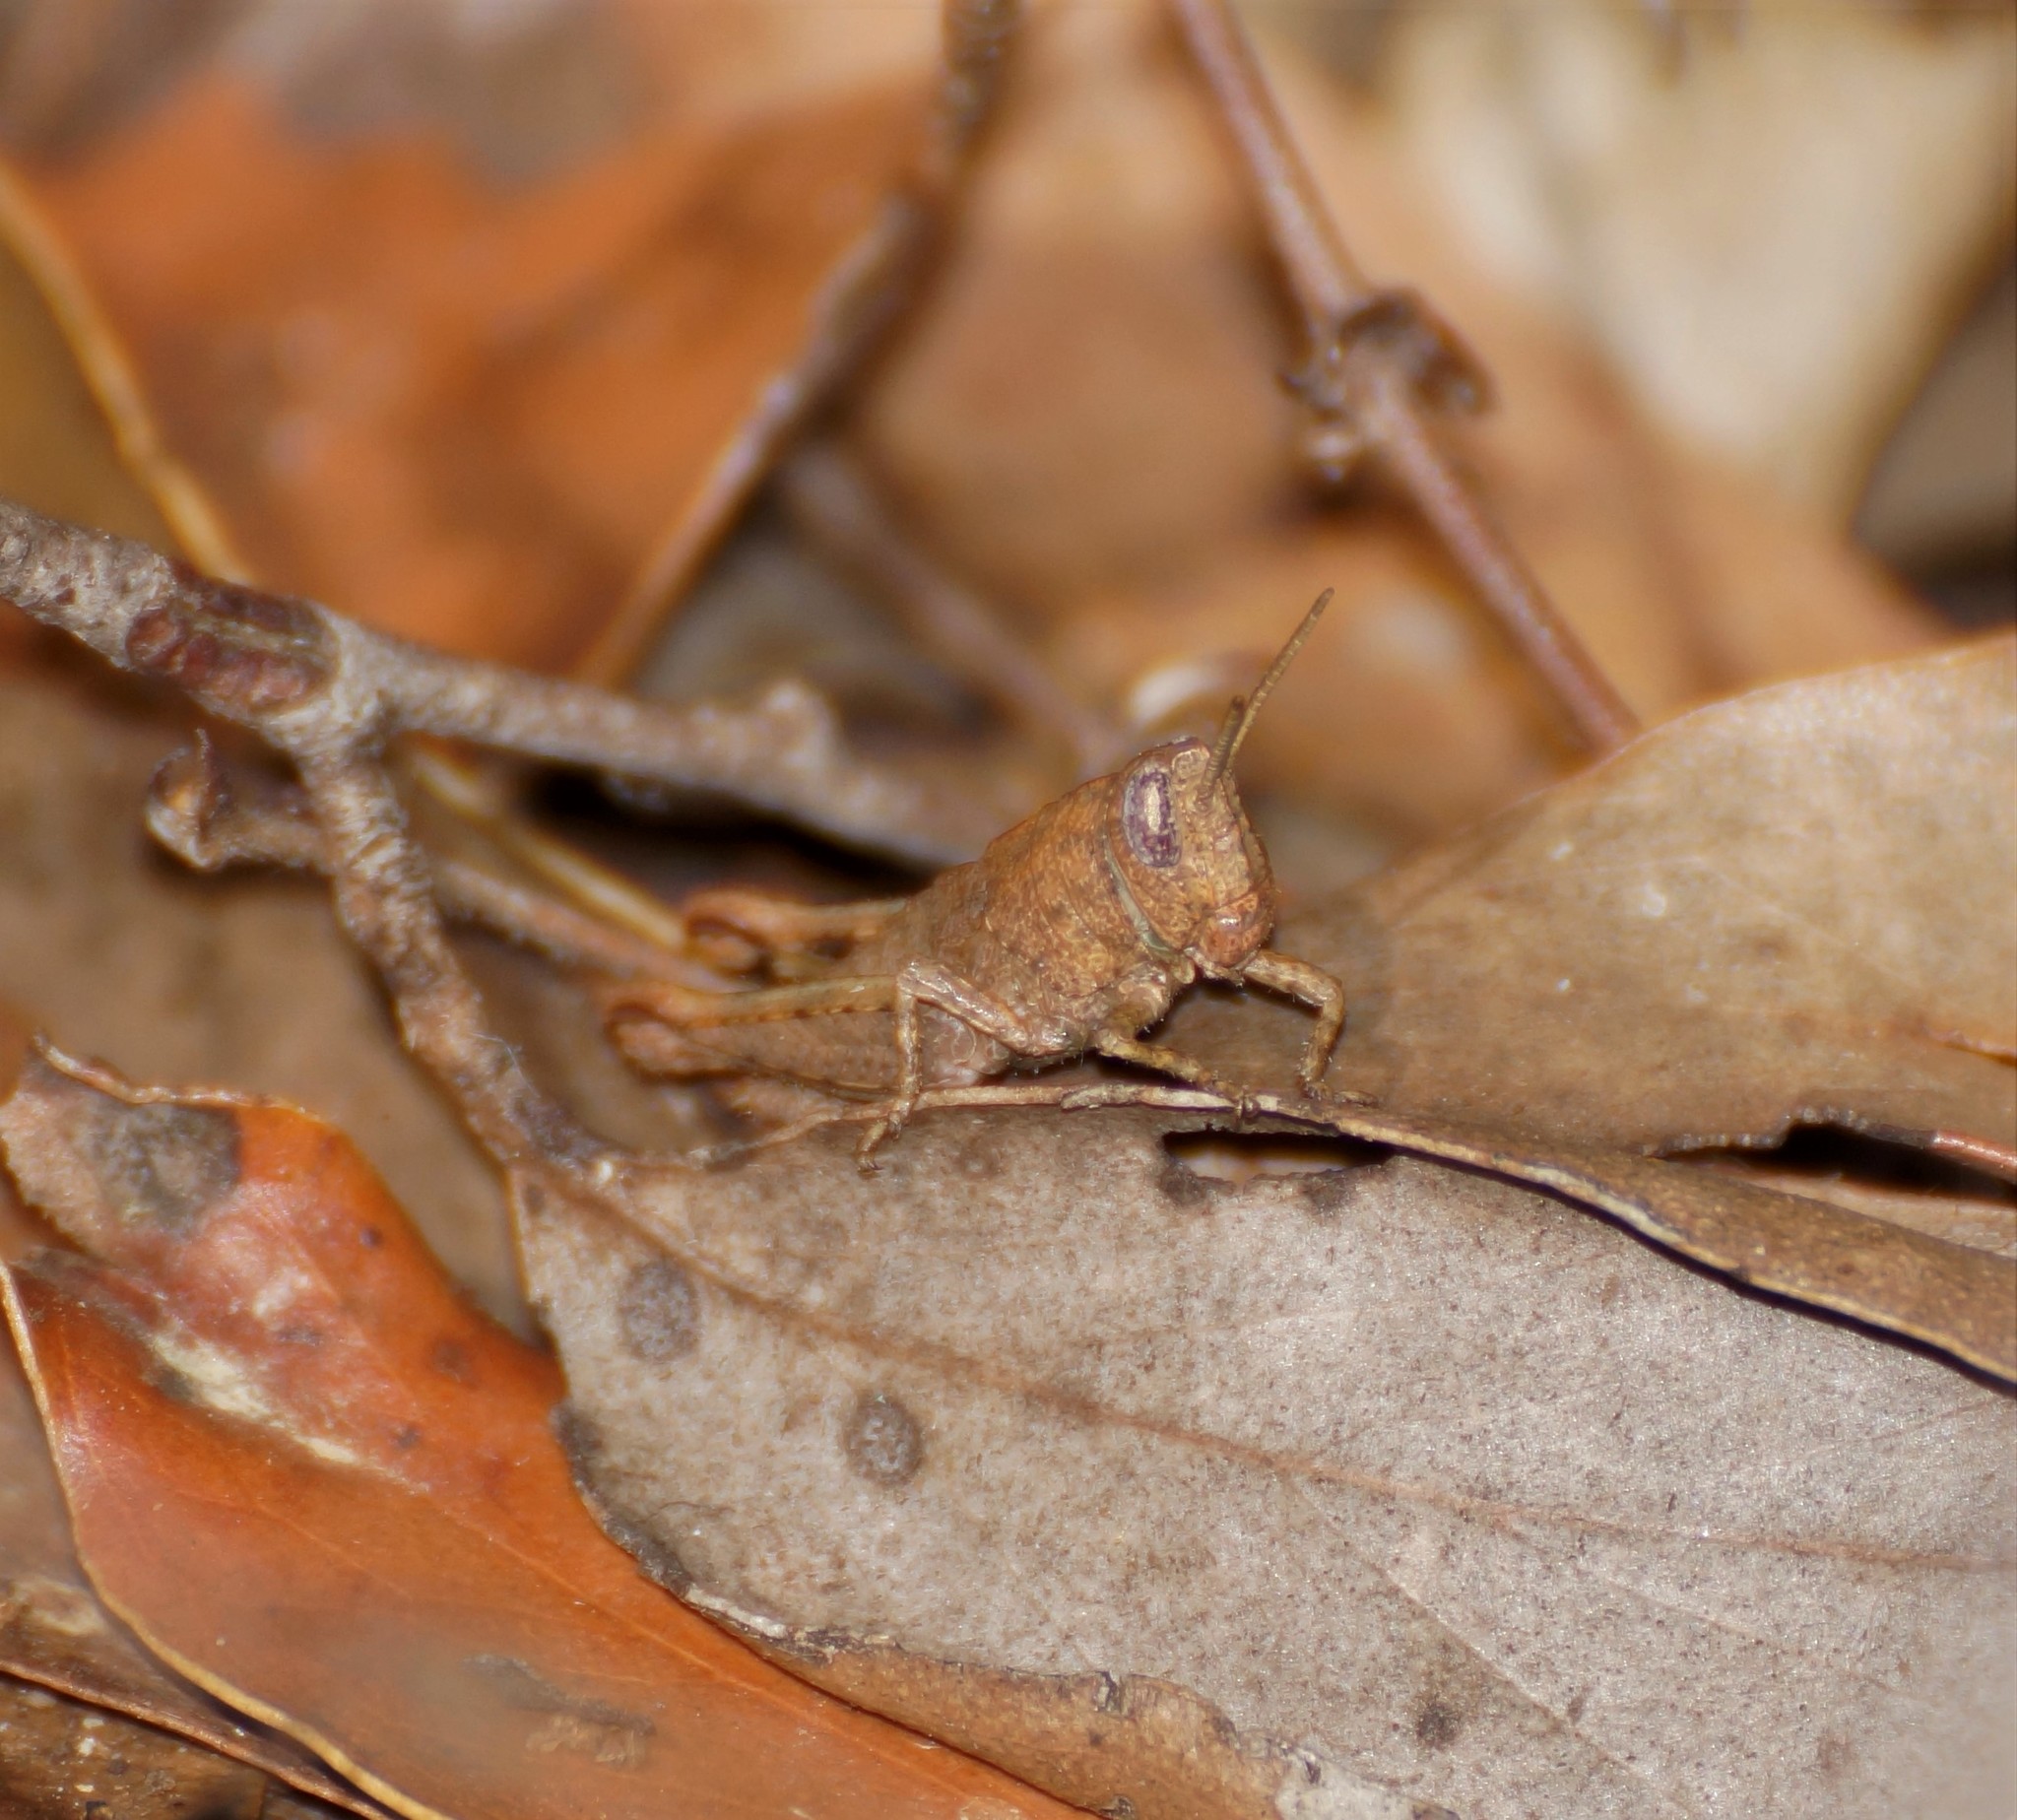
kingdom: Animalia
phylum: Arthropoda
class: Insecta
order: Orthoptera
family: Acrididae
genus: Rhitzala
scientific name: Rhitzala modesta
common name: Short-winged heath grasshopper
